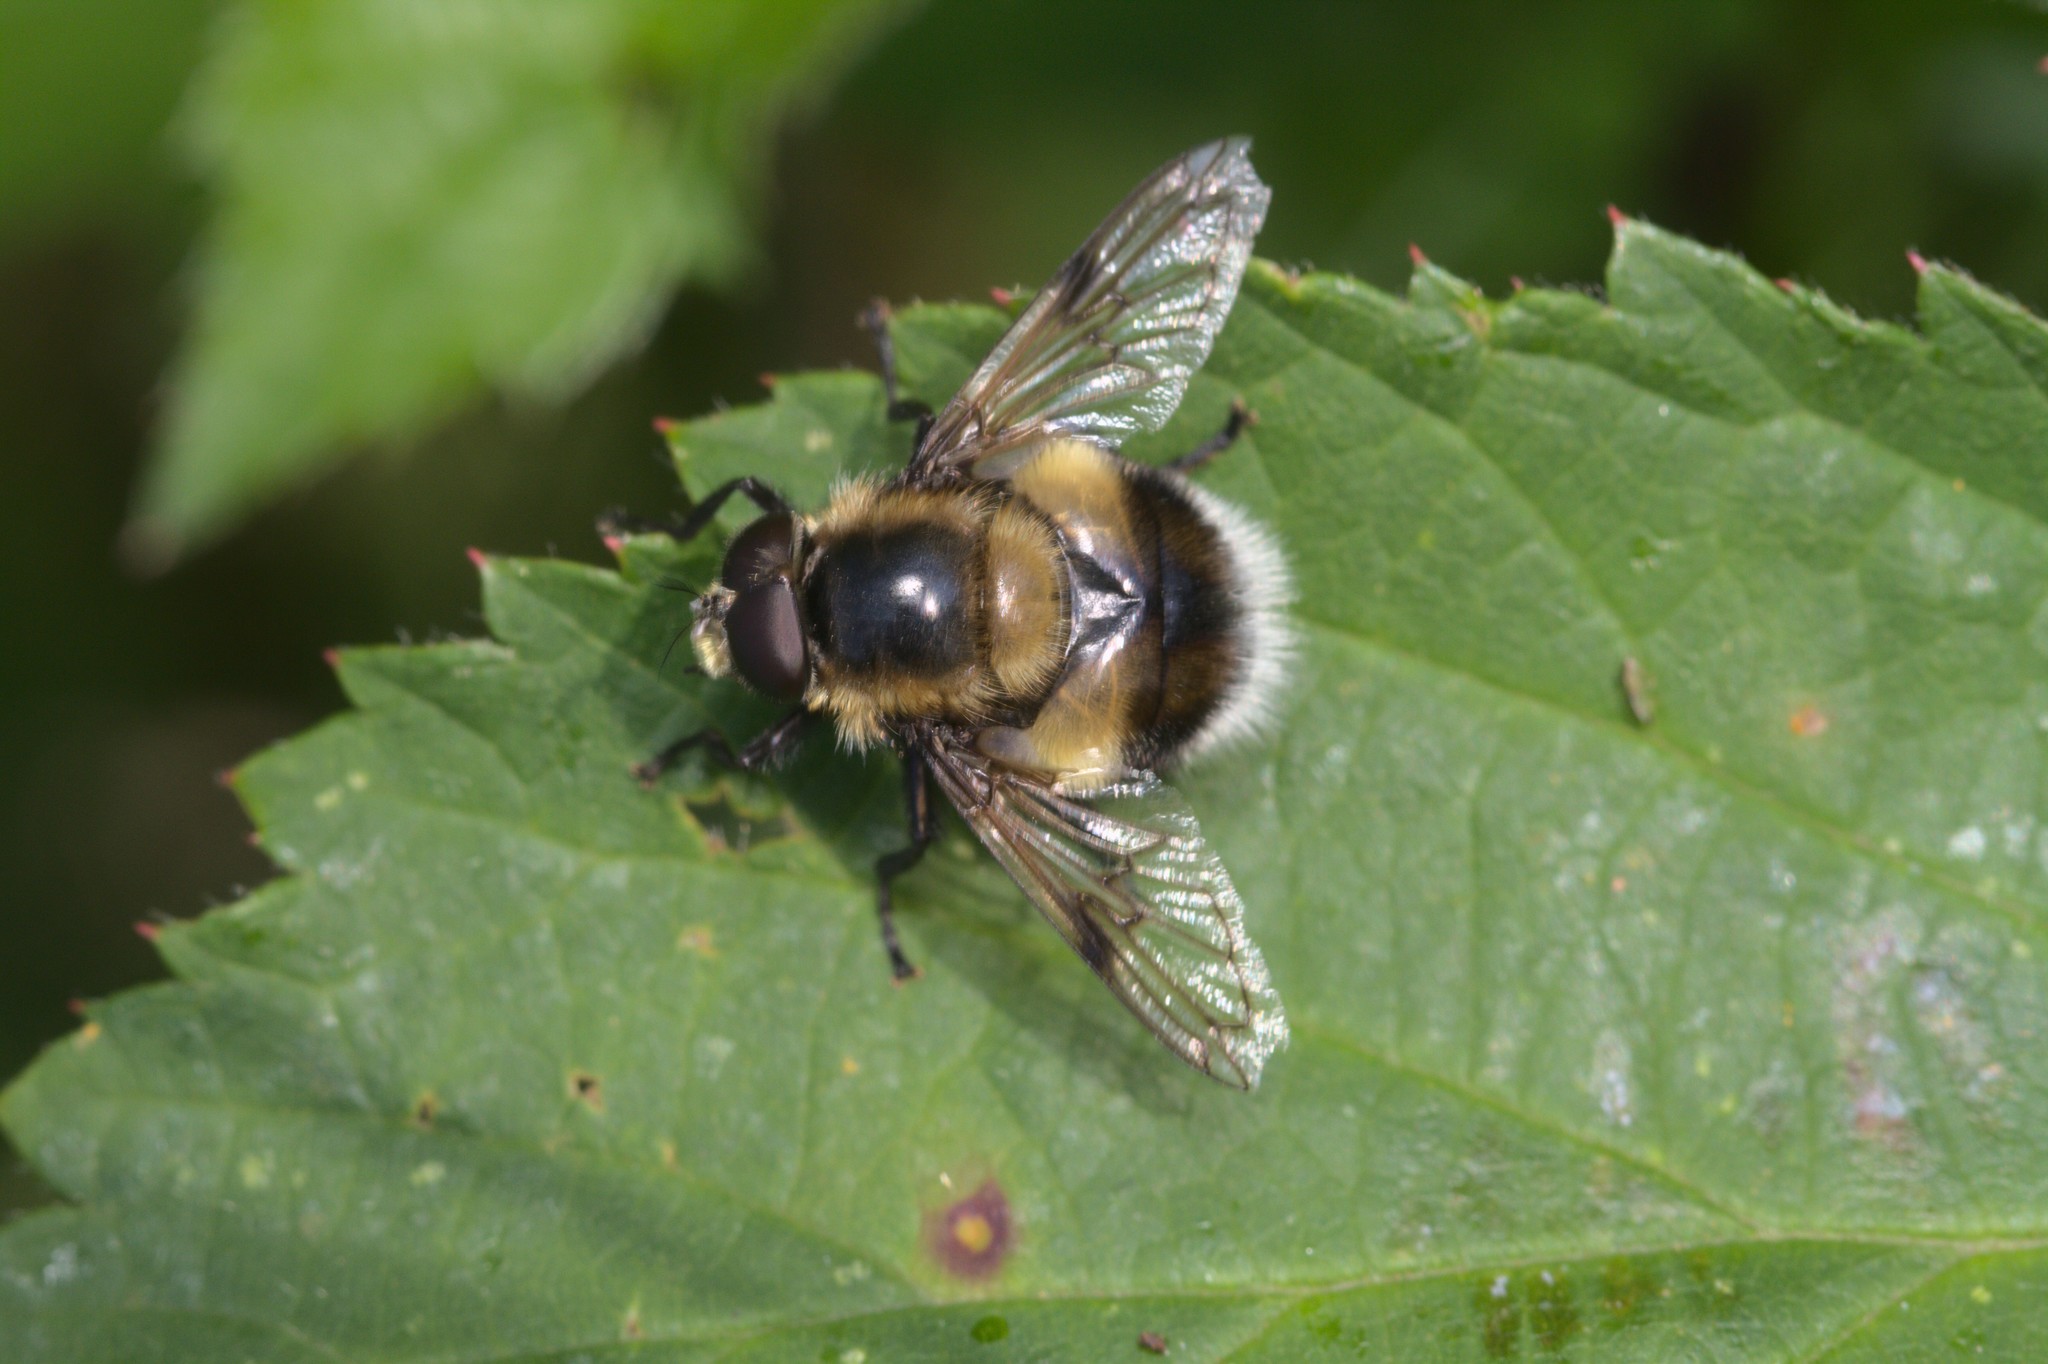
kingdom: Animalia
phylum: Arthropoda
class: Insecta
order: Diptera
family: Syrphidae
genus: Volucella
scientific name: Volucella bombylans
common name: Bumble bee hover fly
